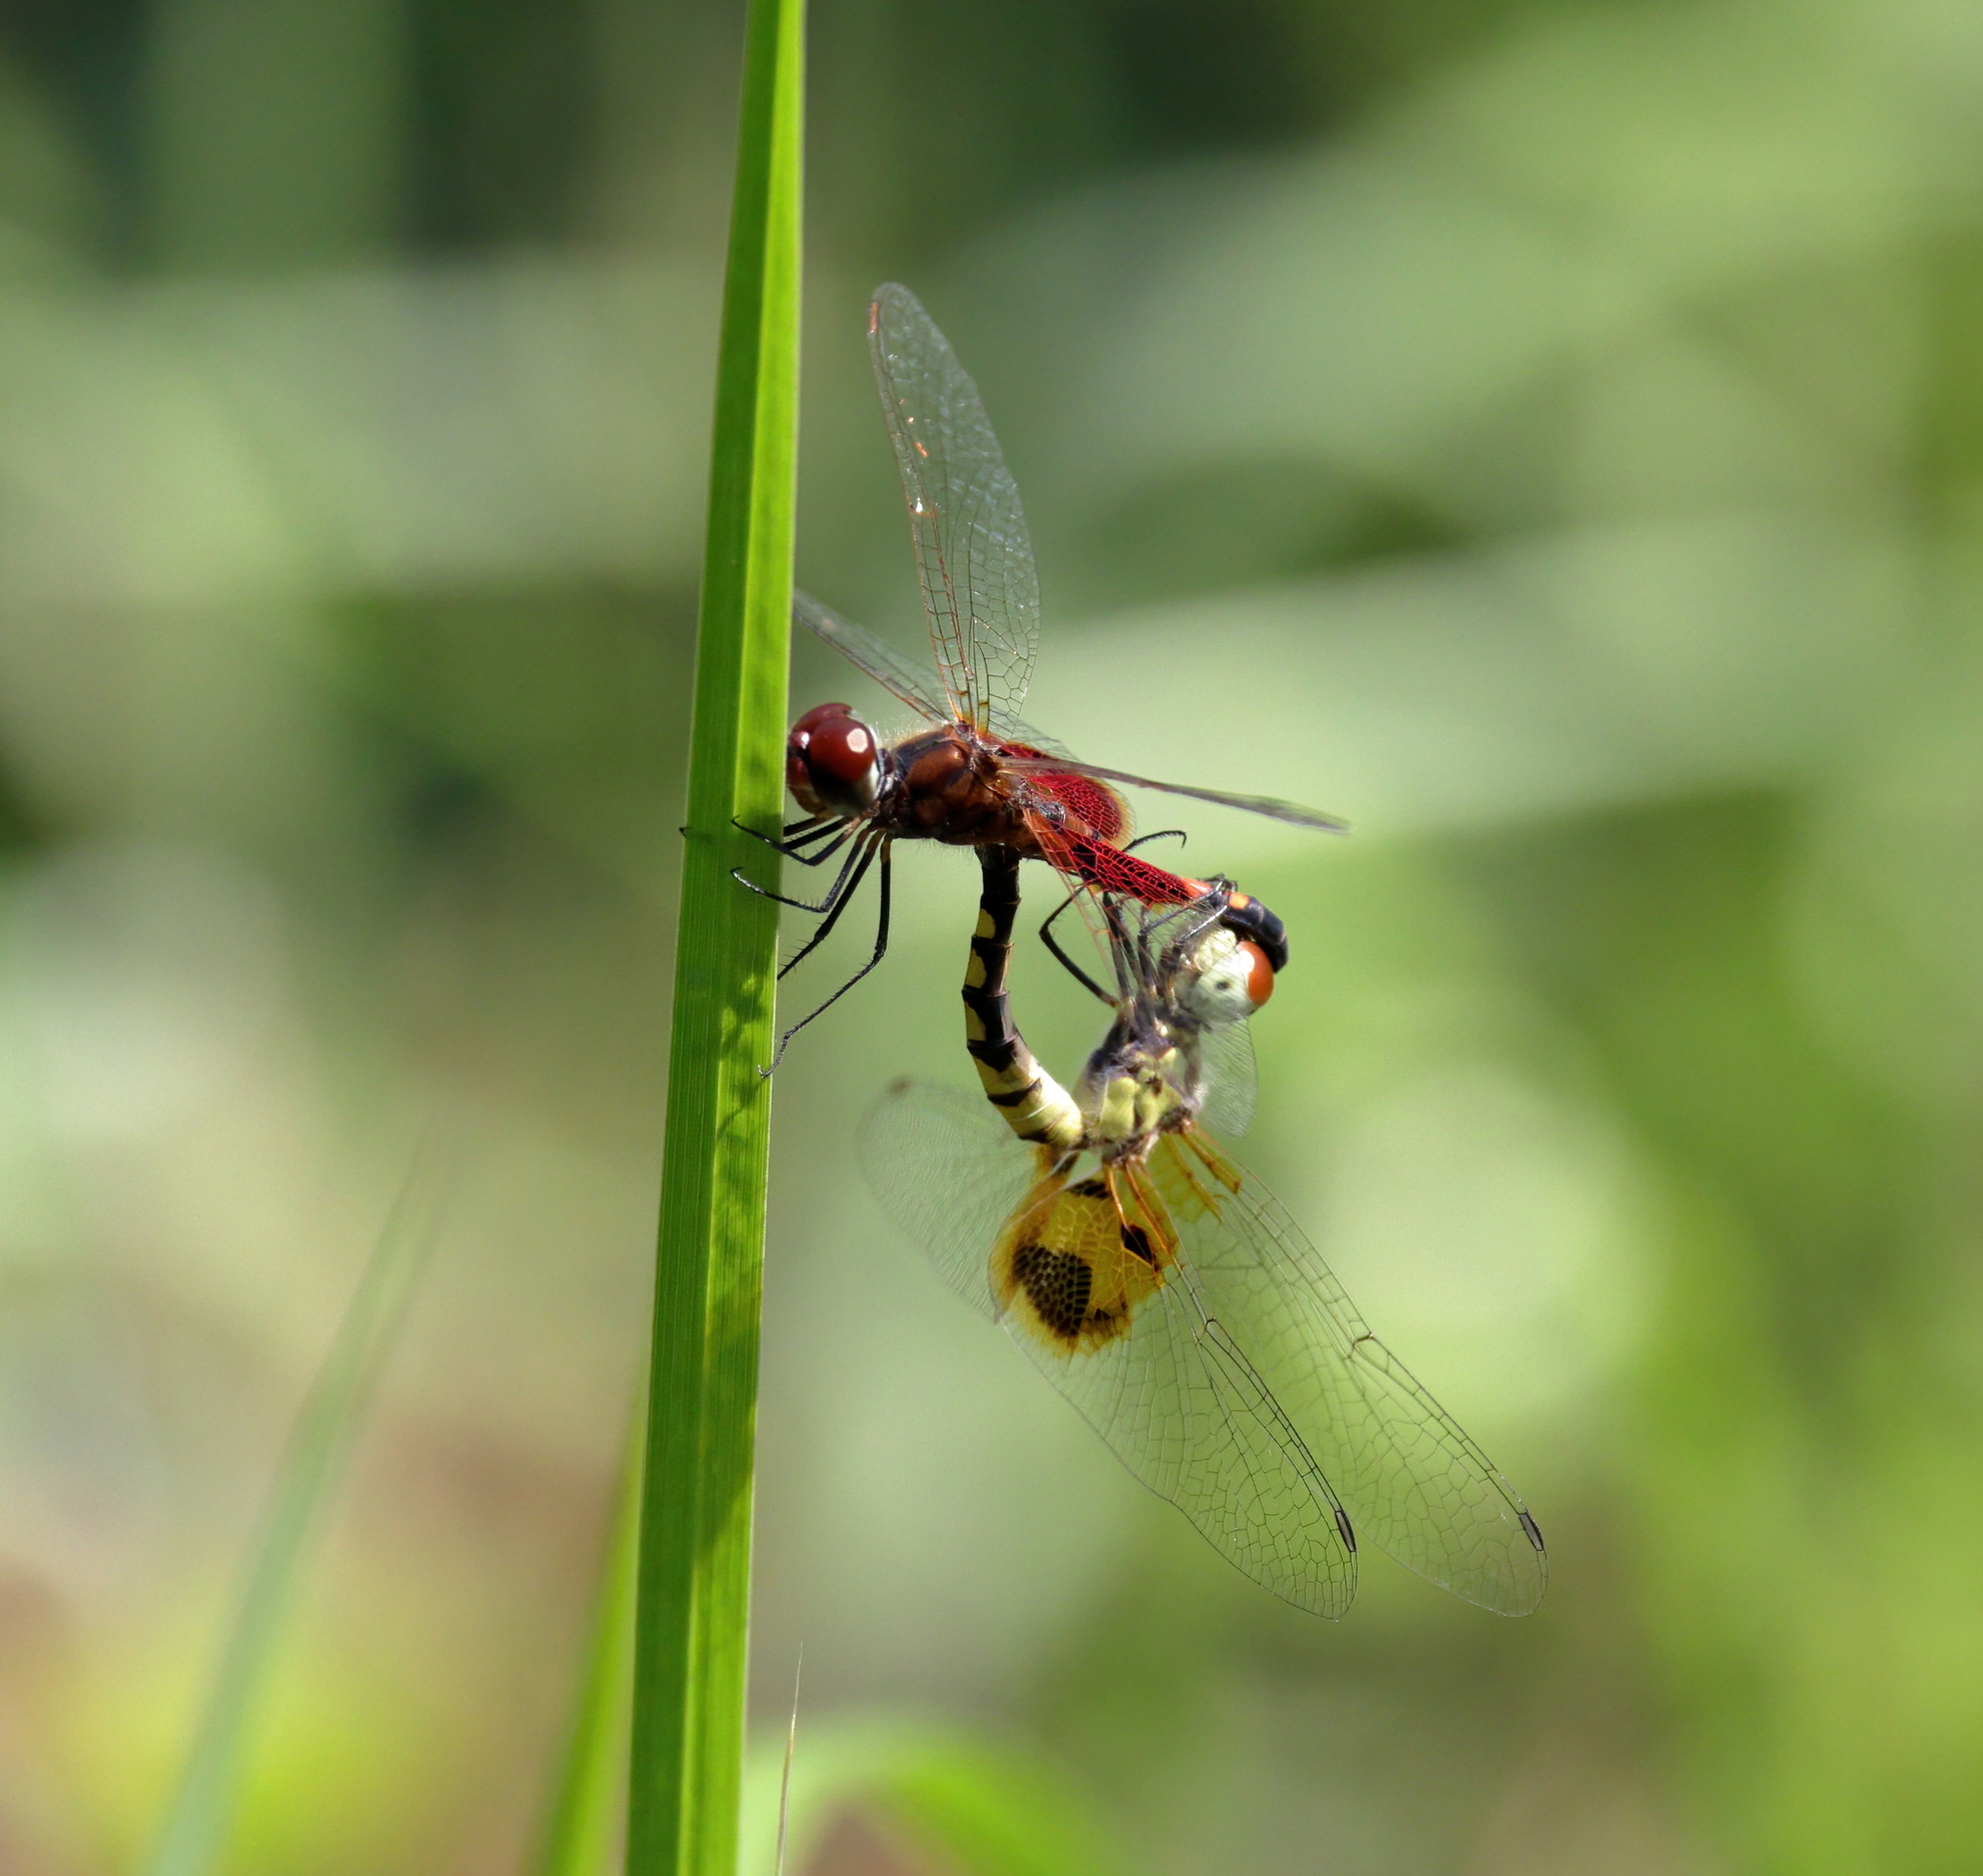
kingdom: Animalia
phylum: Arthropoda
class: Insecta
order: Odonata
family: Libellulidae
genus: Celithemis
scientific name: Celithemis amanda
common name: Amanda's pennant
